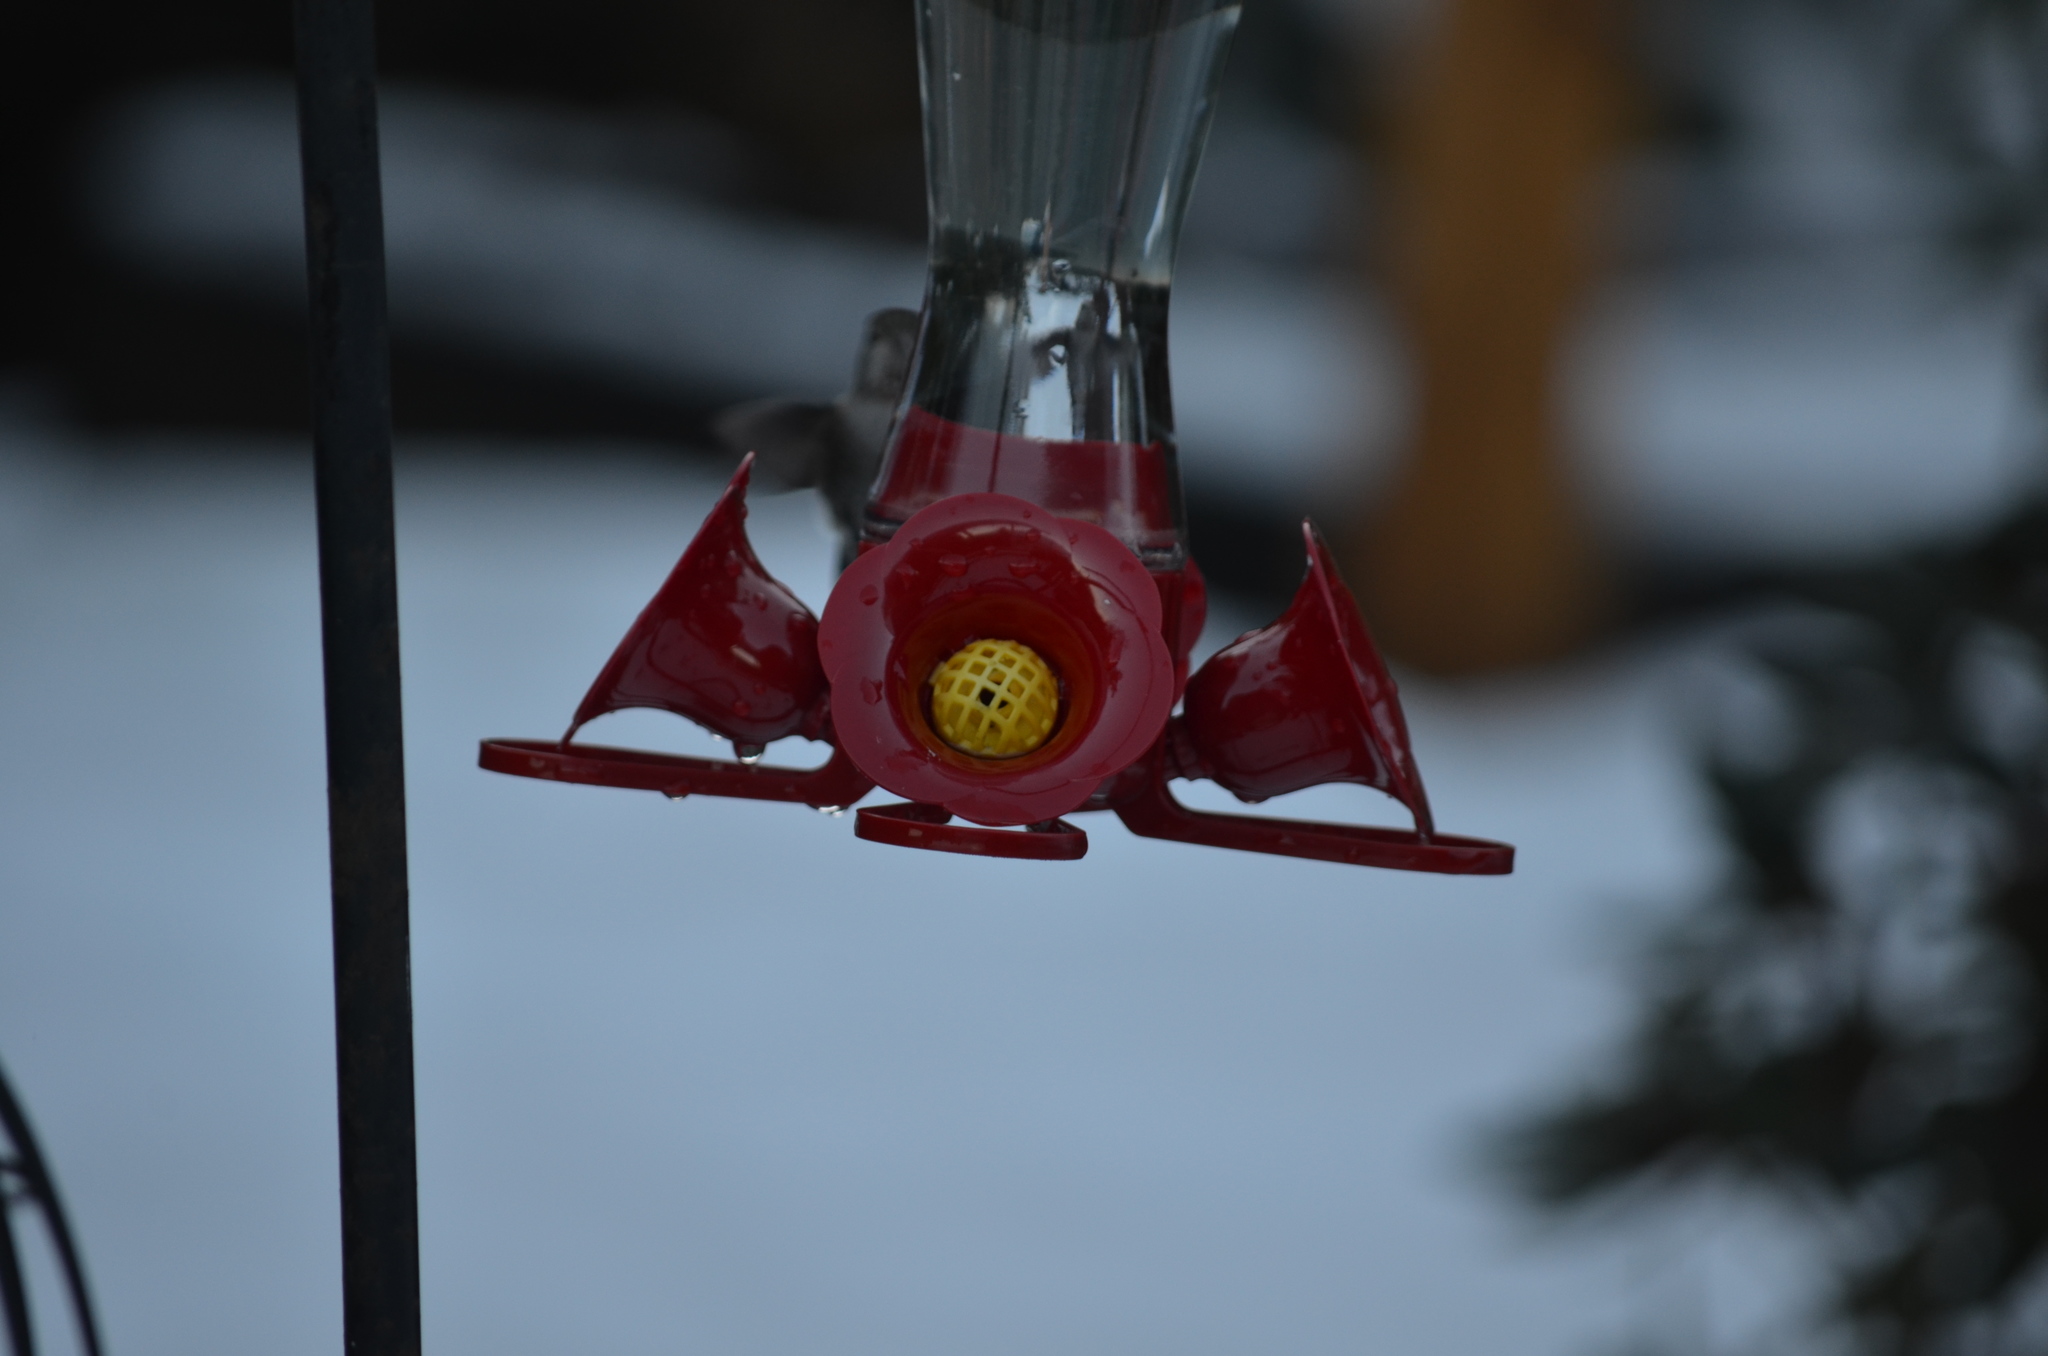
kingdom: Animalia
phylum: Chordata
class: Aves
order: Apodiformes
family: Trochilidae
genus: Calypte
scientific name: Calypte anna
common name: Anna's hummingbird
